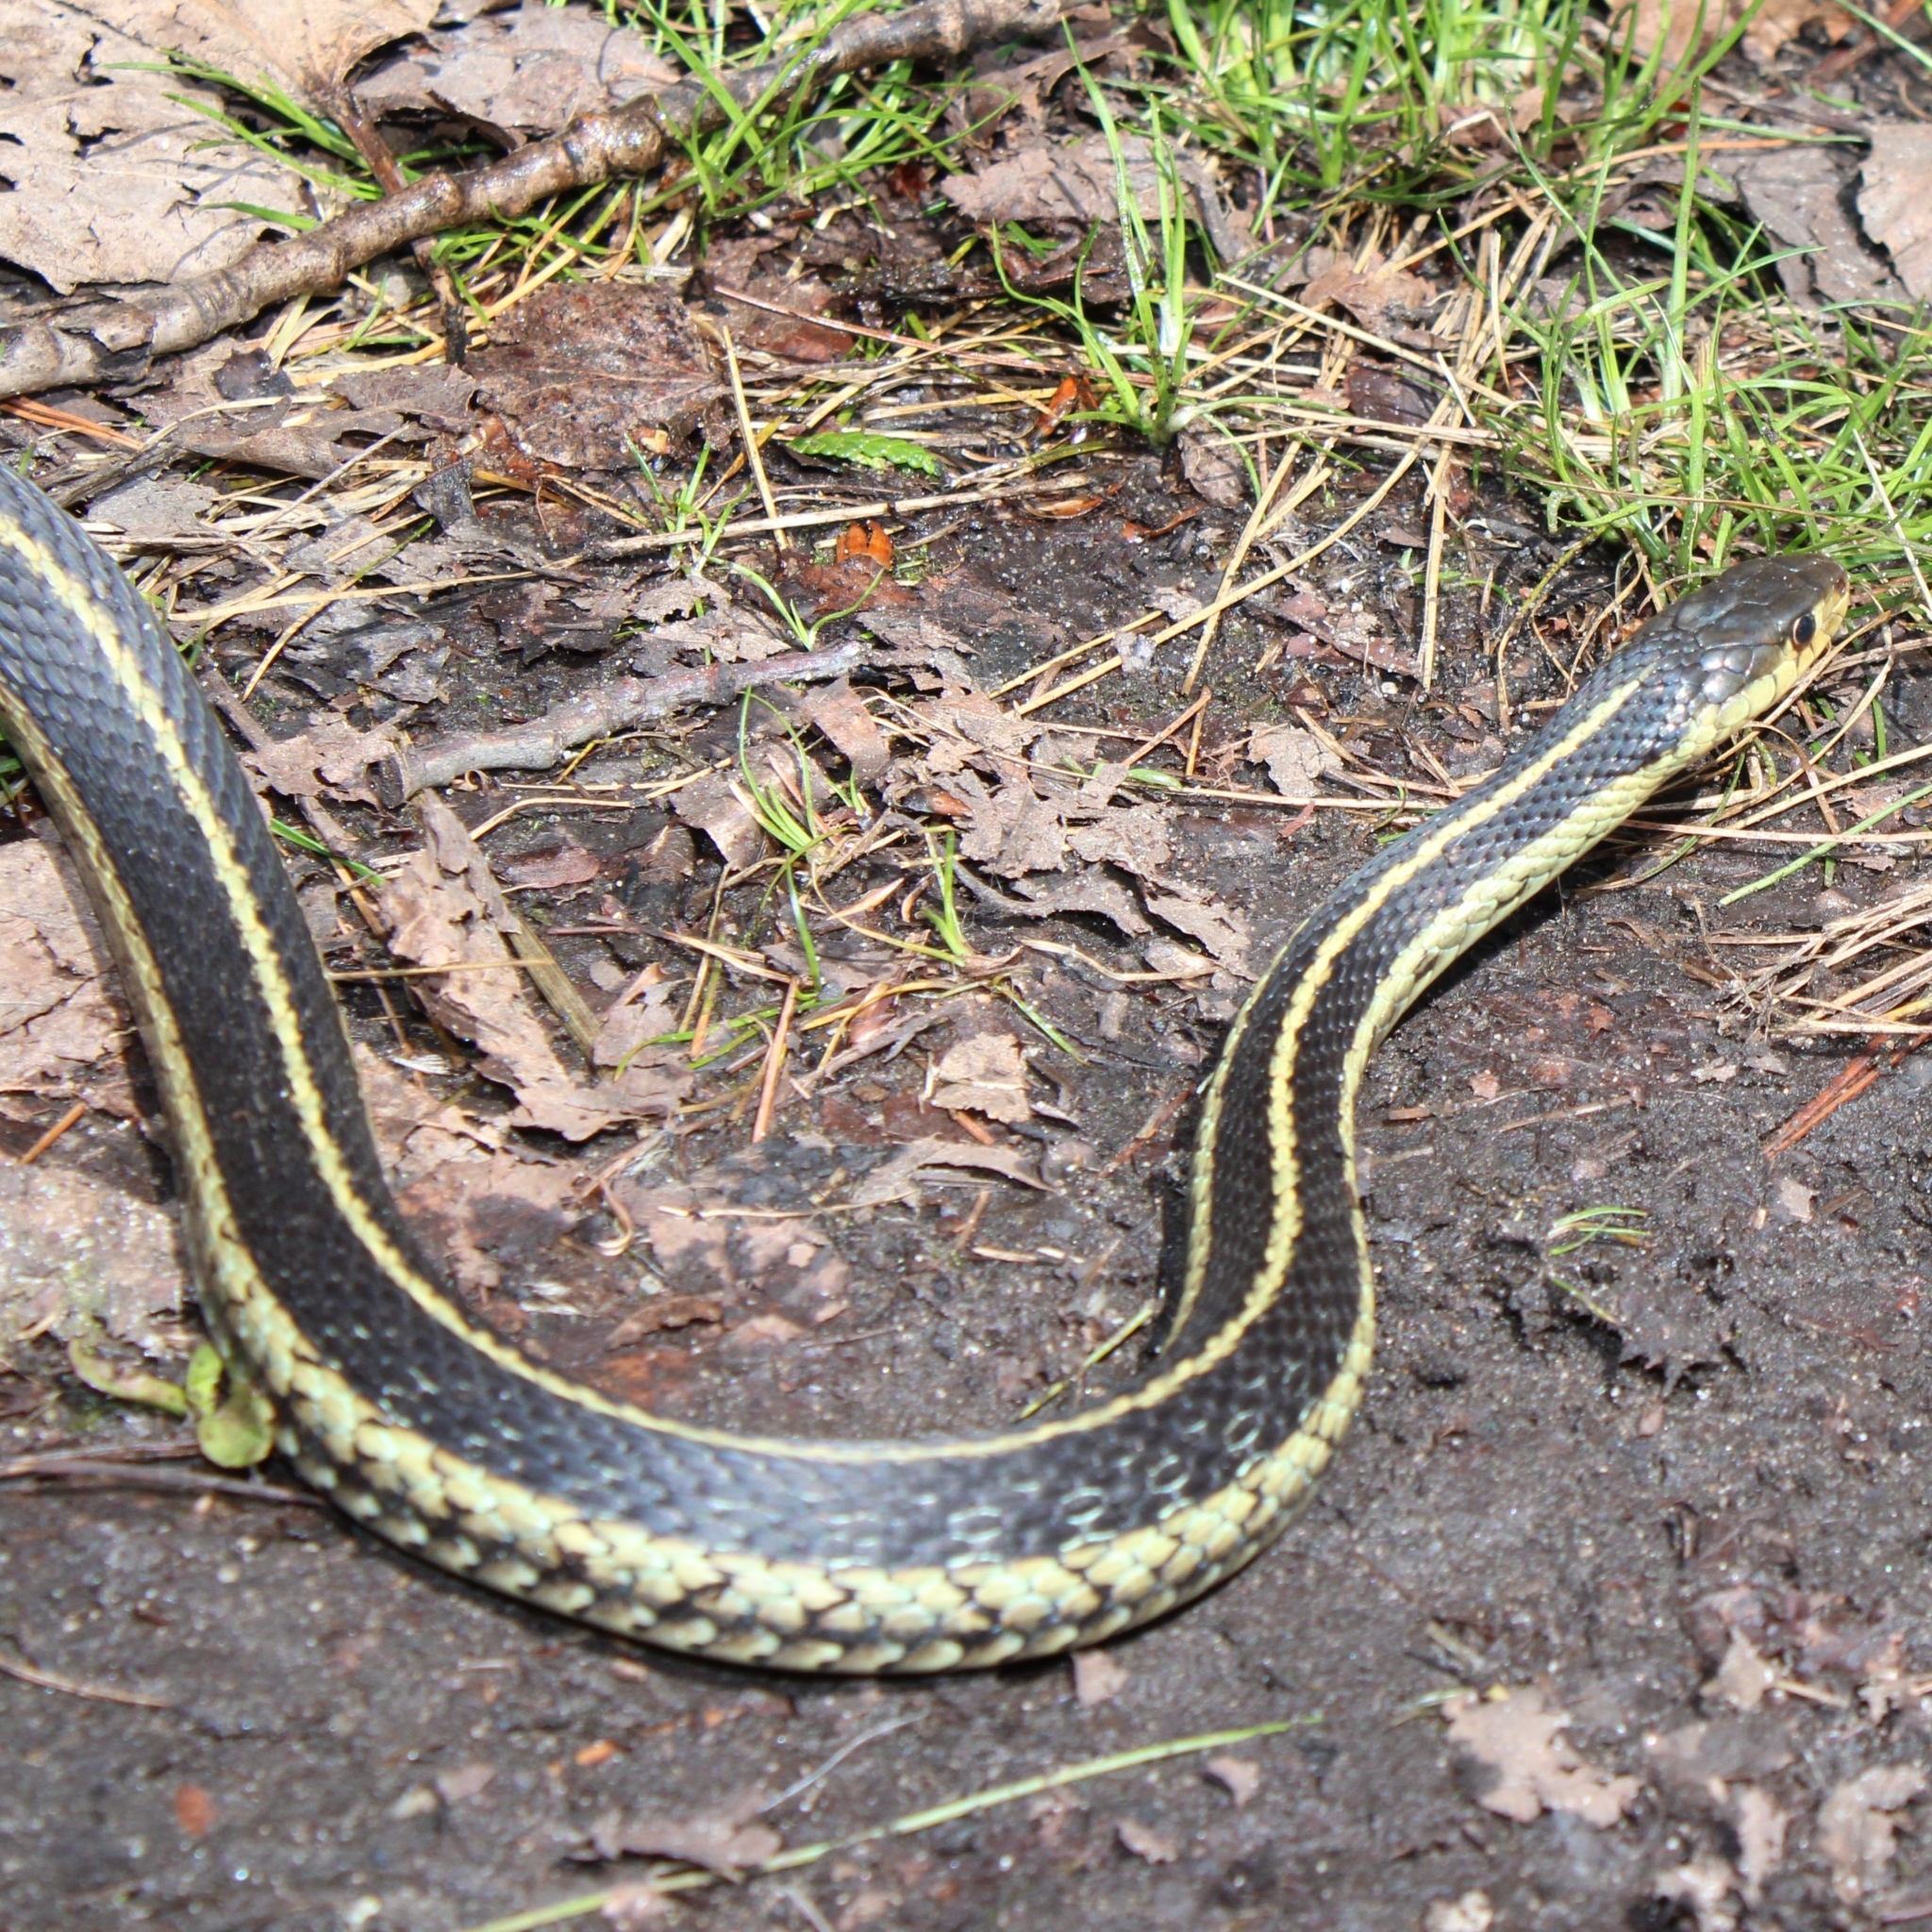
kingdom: Animalia
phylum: Chordata
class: Squamata
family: Colubridae
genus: Thamnophis
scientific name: Thamnophis sirtalis
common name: Common garter snake
